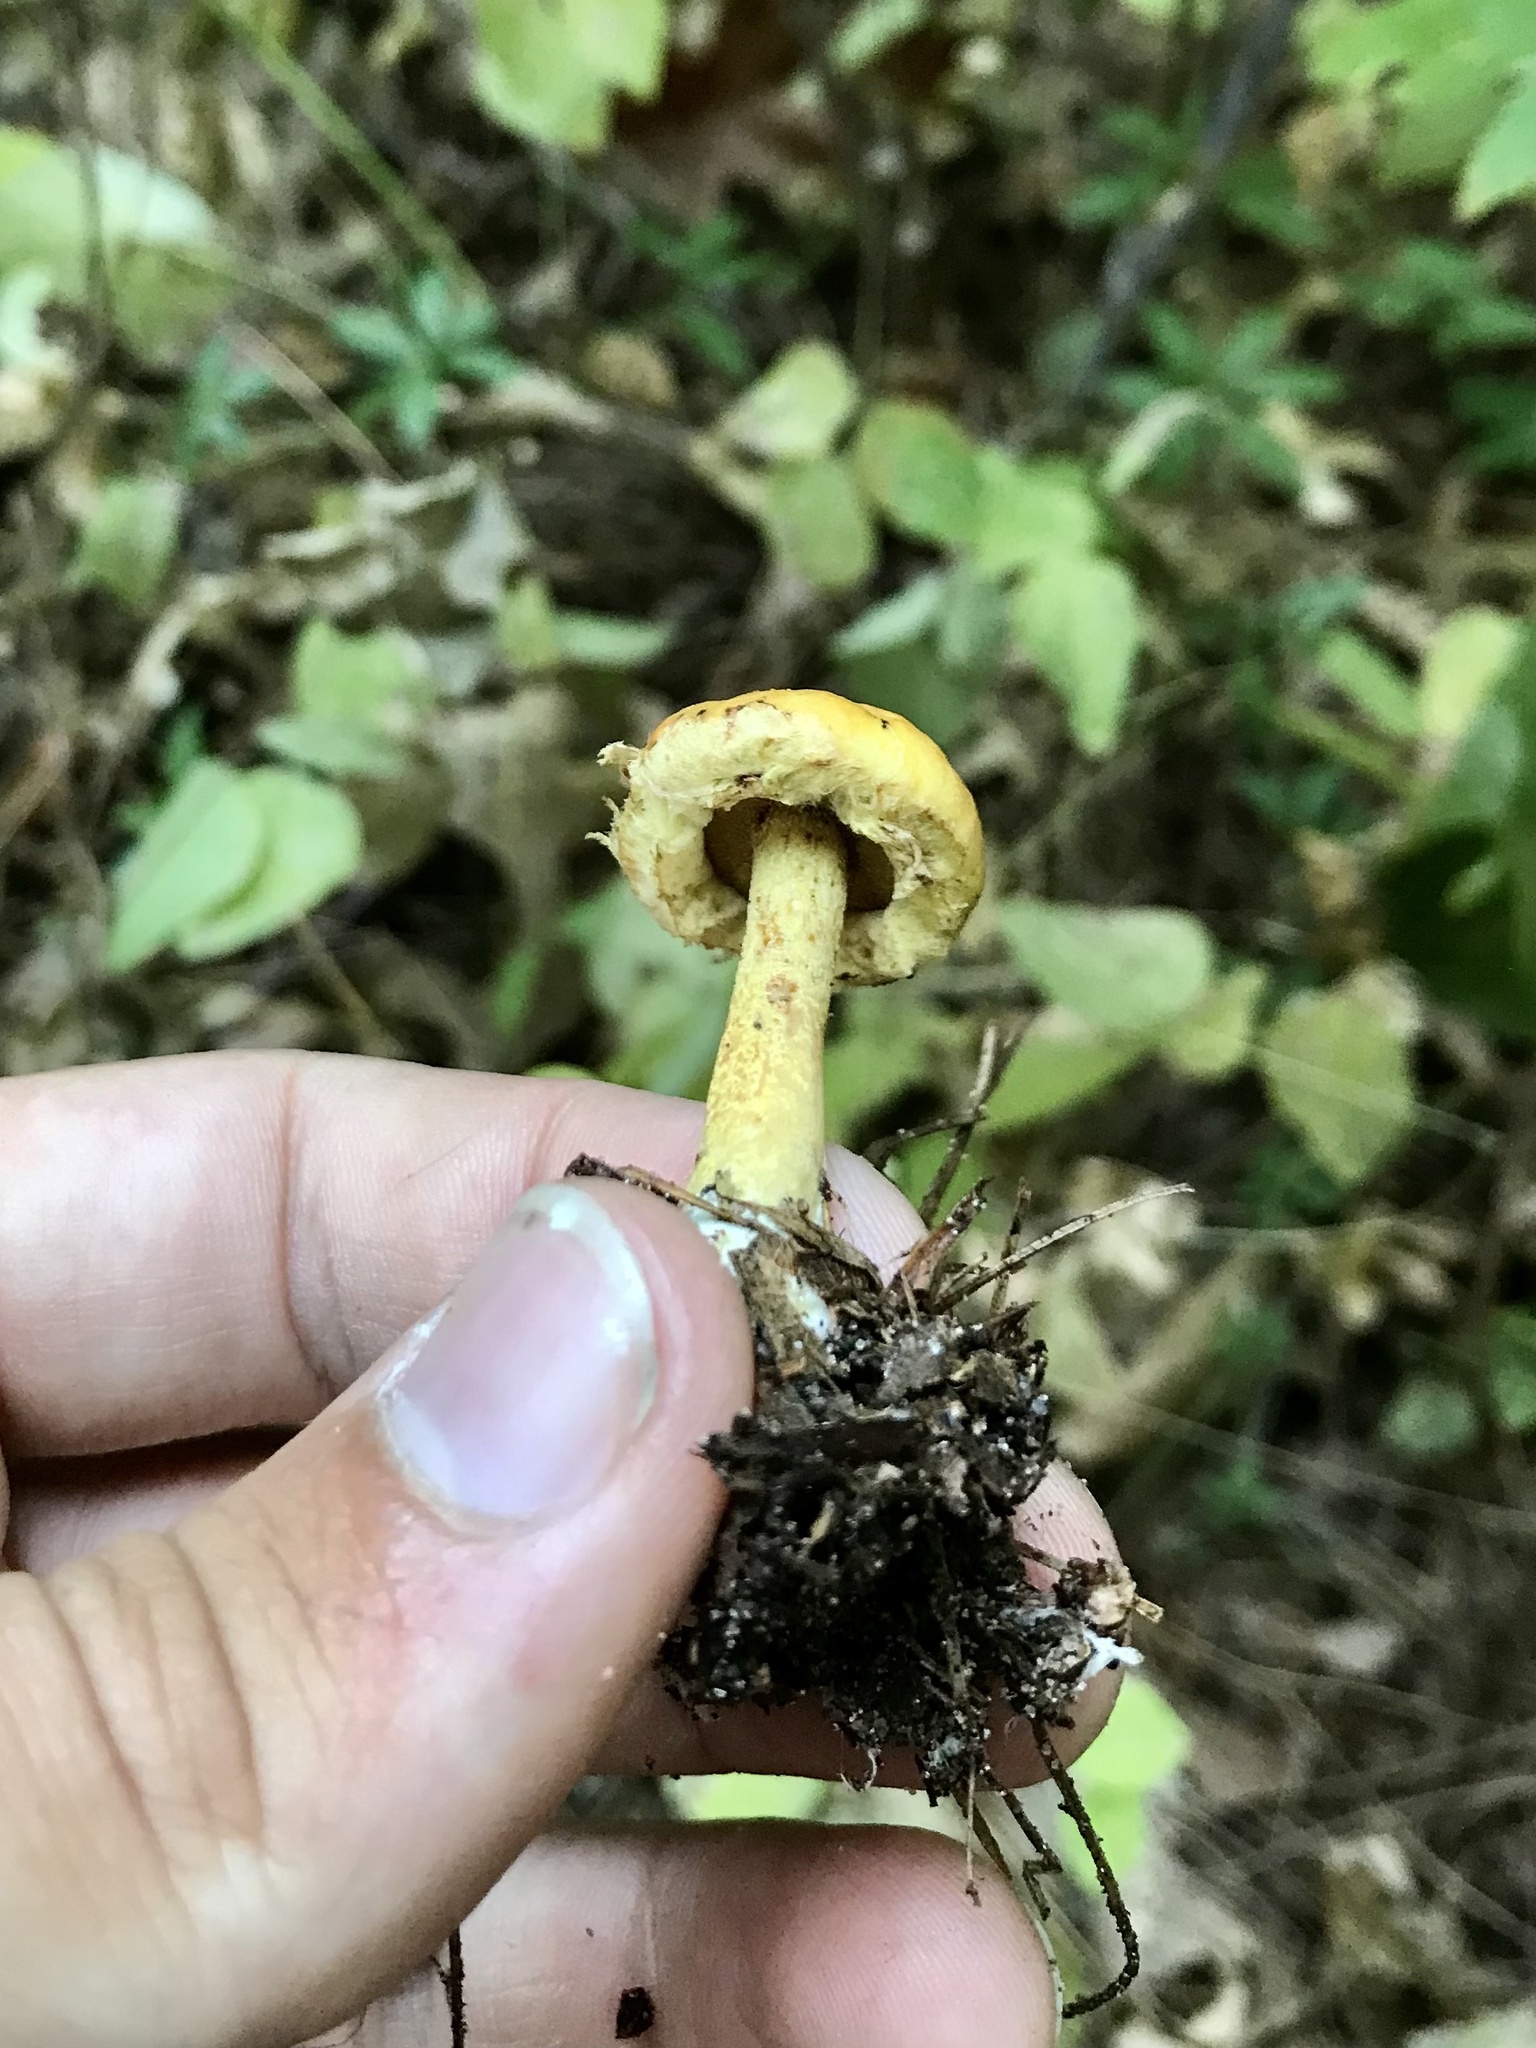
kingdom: Fungi
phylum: Basidiomycota
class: Agaricomycetes
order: Boletales
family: Suillaceae
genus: Suillus
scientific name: Suillus americanus
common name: Chicken fat mushroom
